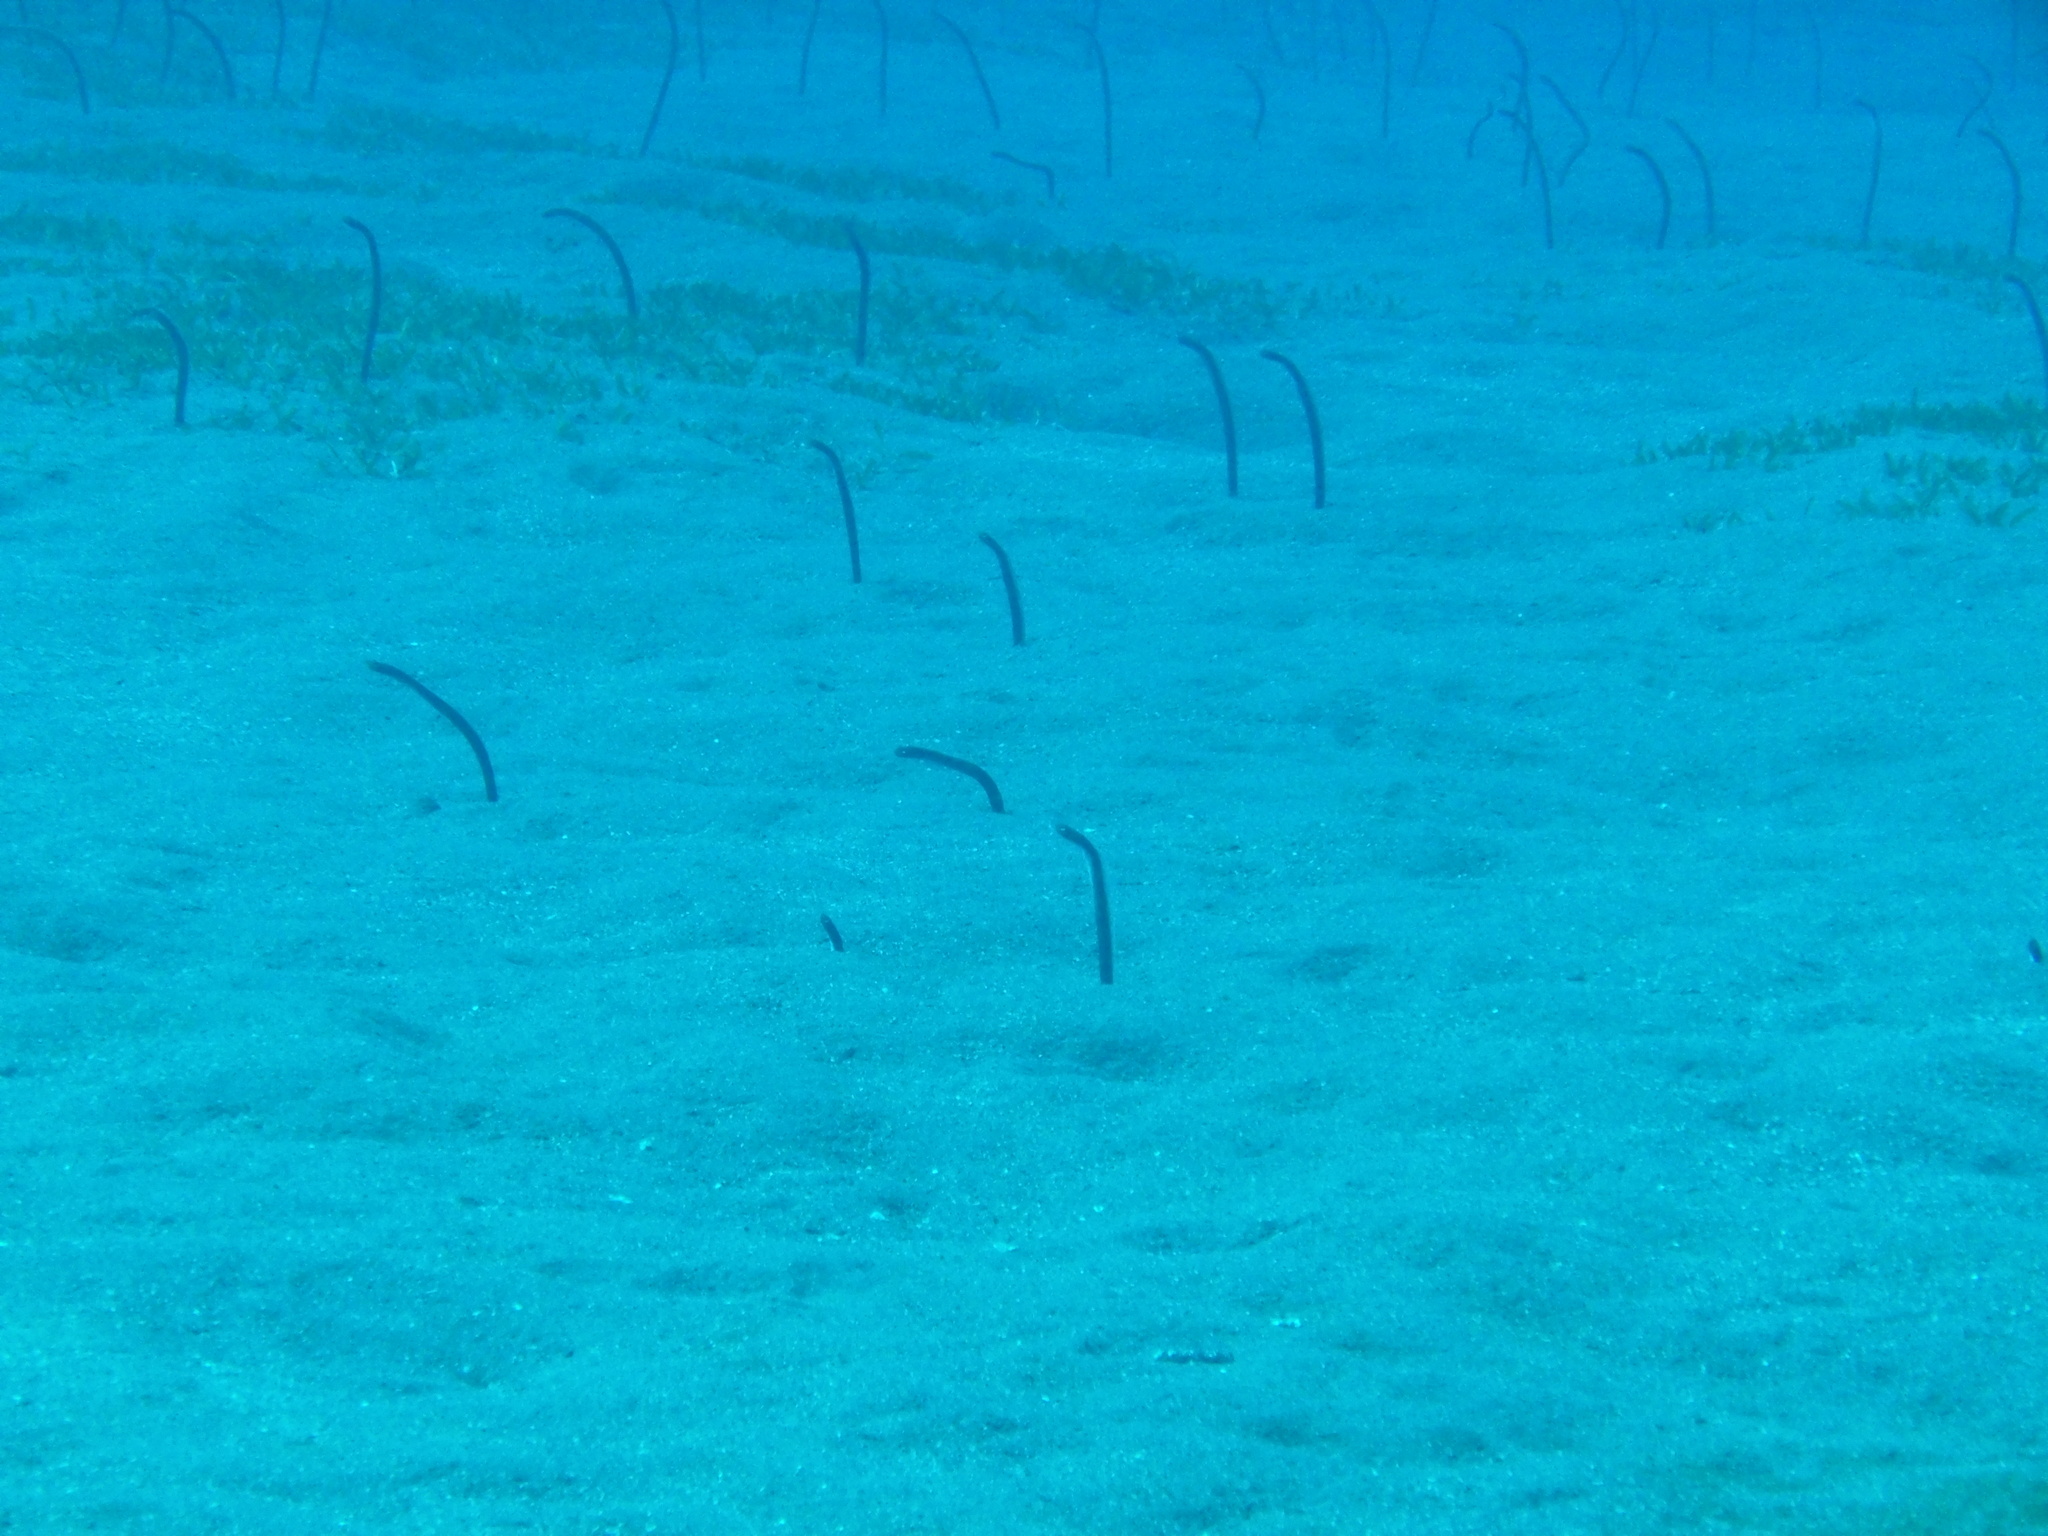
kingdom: Animalia
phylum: Chordata
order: Anguilliformes
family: Congridae
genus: Heteroconger
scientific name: Heteroconger longissimus
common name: Garden eel
